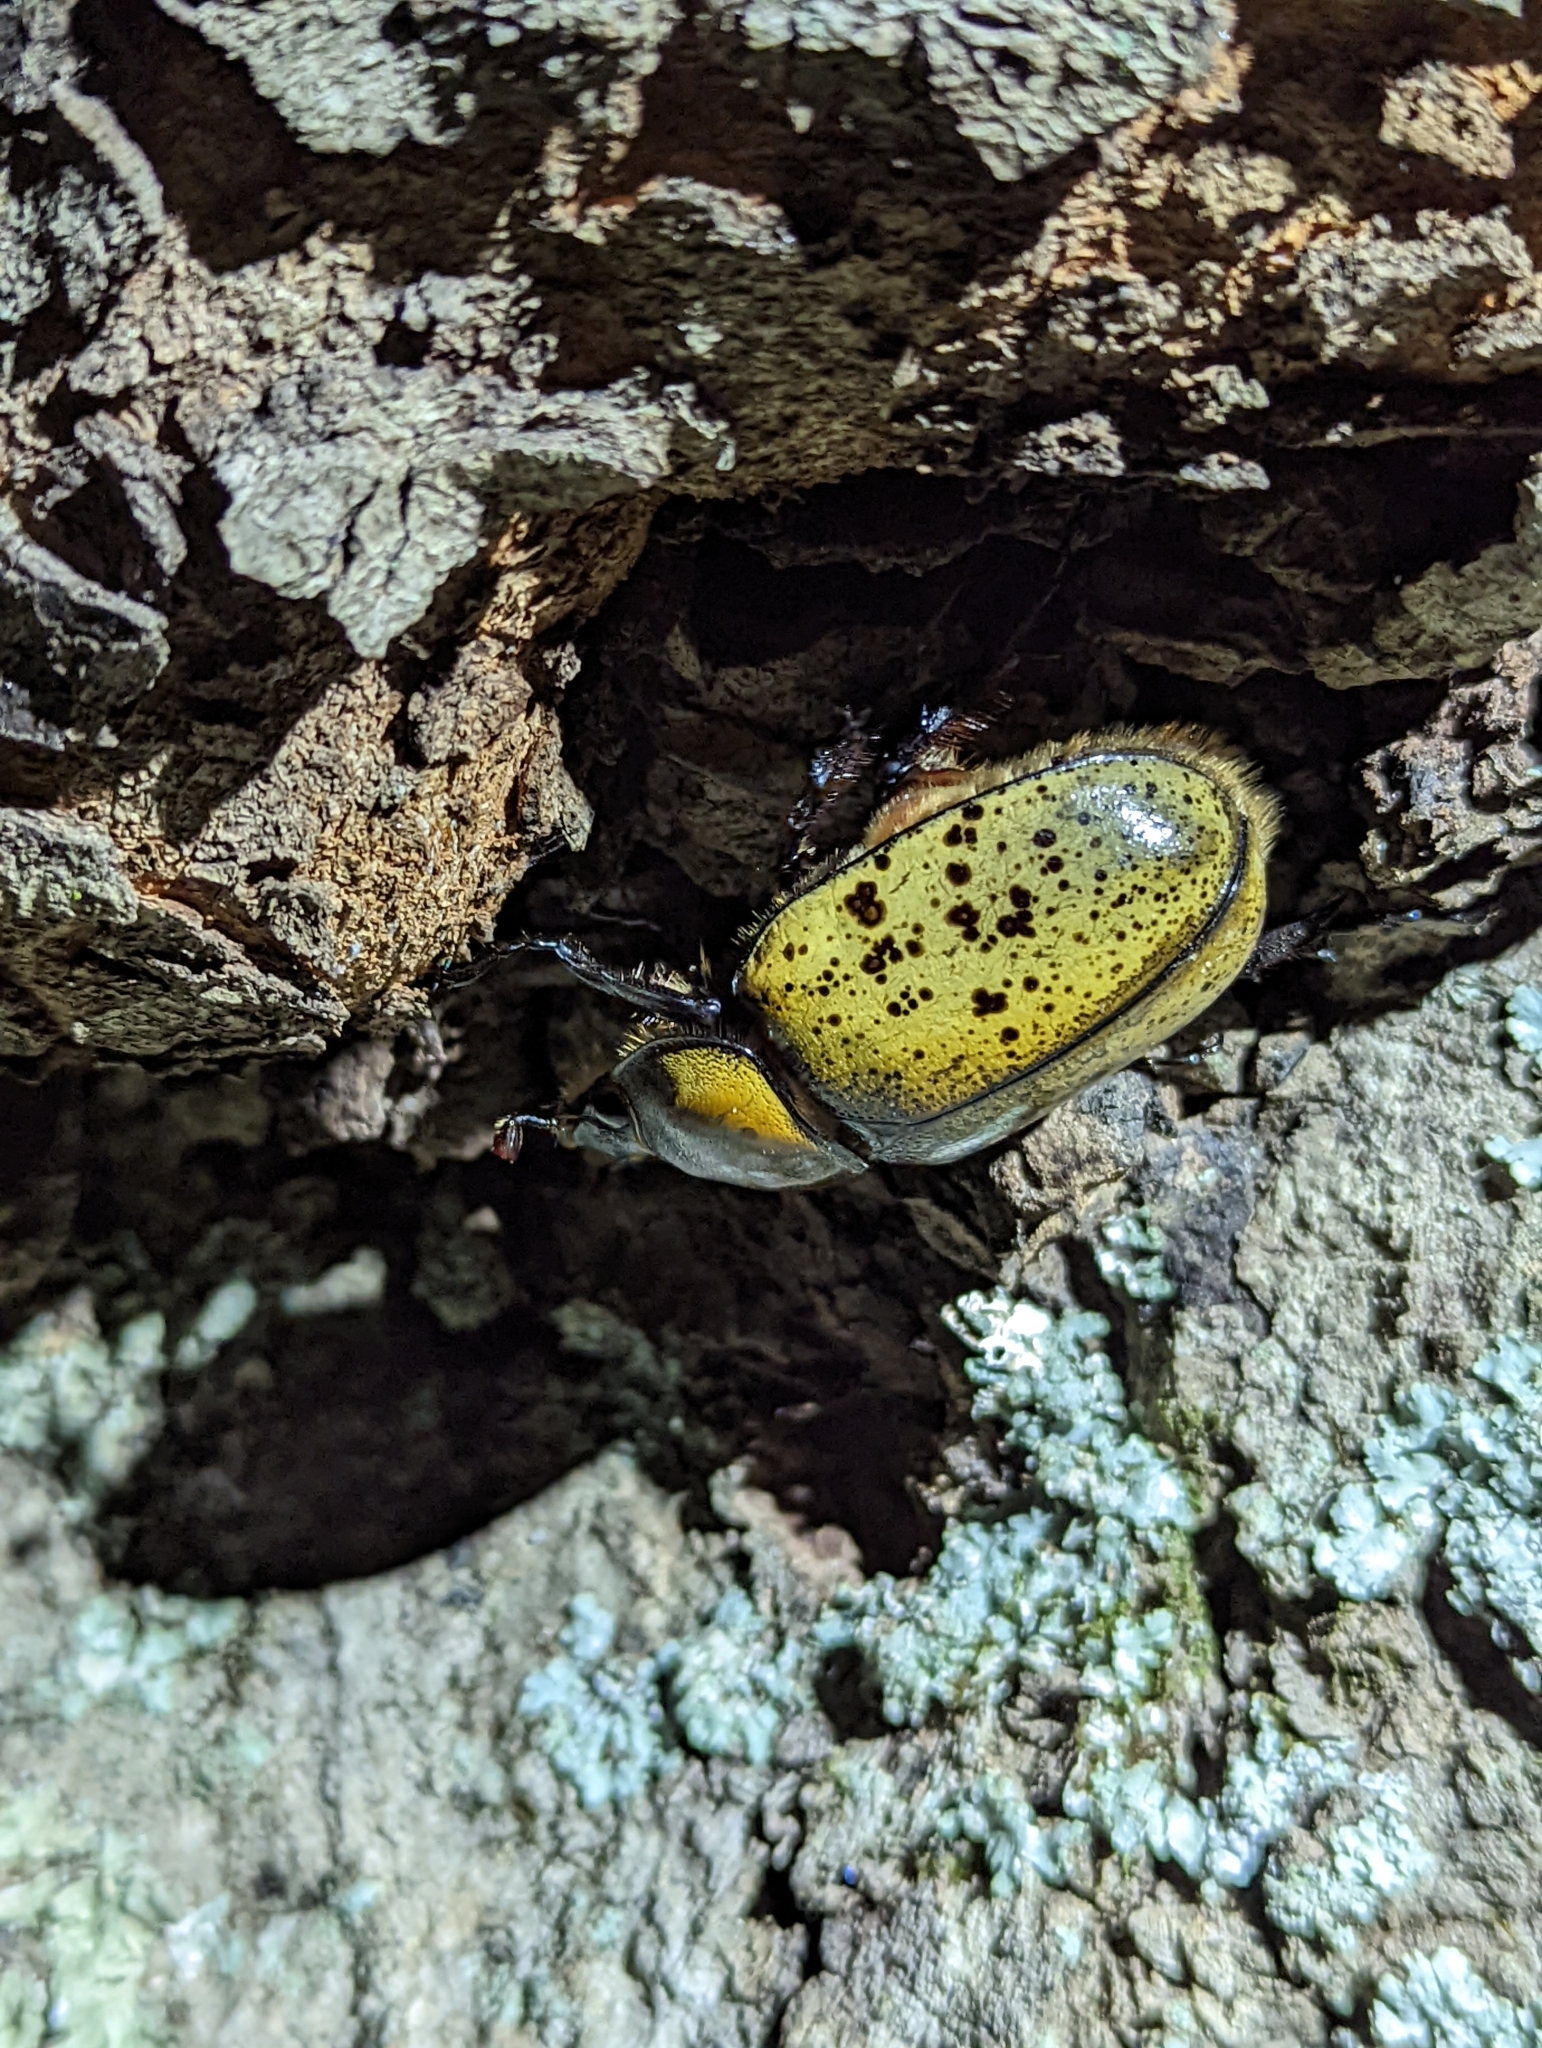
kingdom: Animalia
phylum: Arthropoda
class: Insecta
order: Coleoptera
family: Scarabaeidae
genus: Dynastes
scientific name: Dynastes tityus
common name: Eastern hercules beetle
